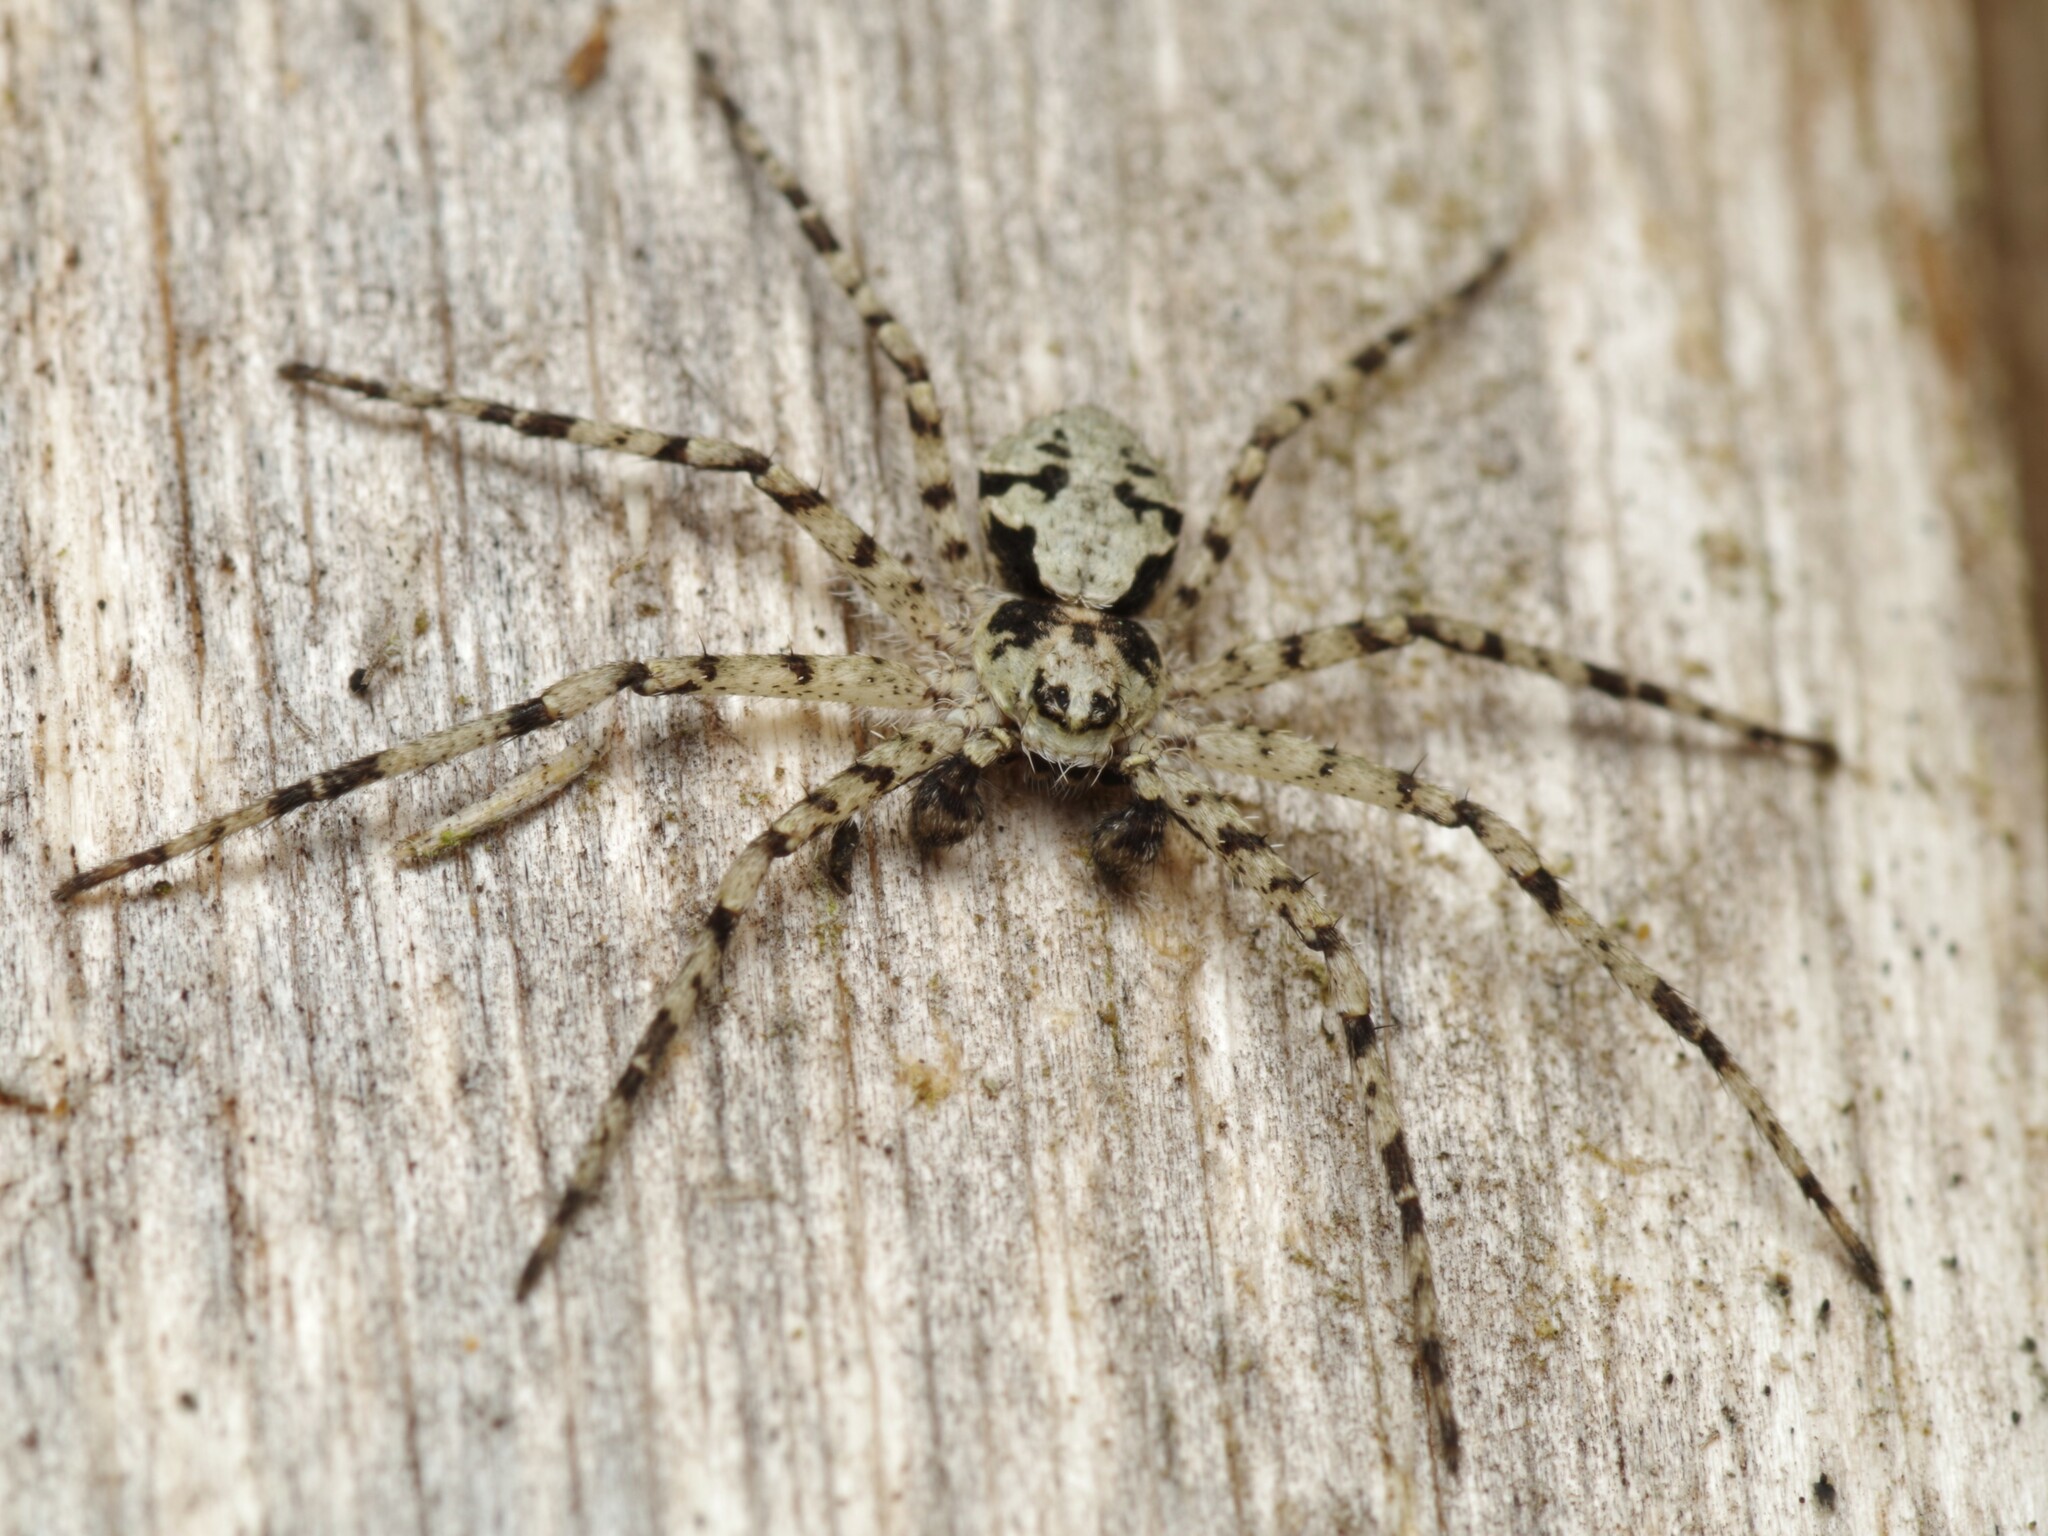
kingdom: Animalia
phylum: Arthropoda
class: Arachnida
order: Araneae
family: Philodromidae
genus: Philodromus
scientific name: Philodromus margaritatus
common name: Lichen running-spider
